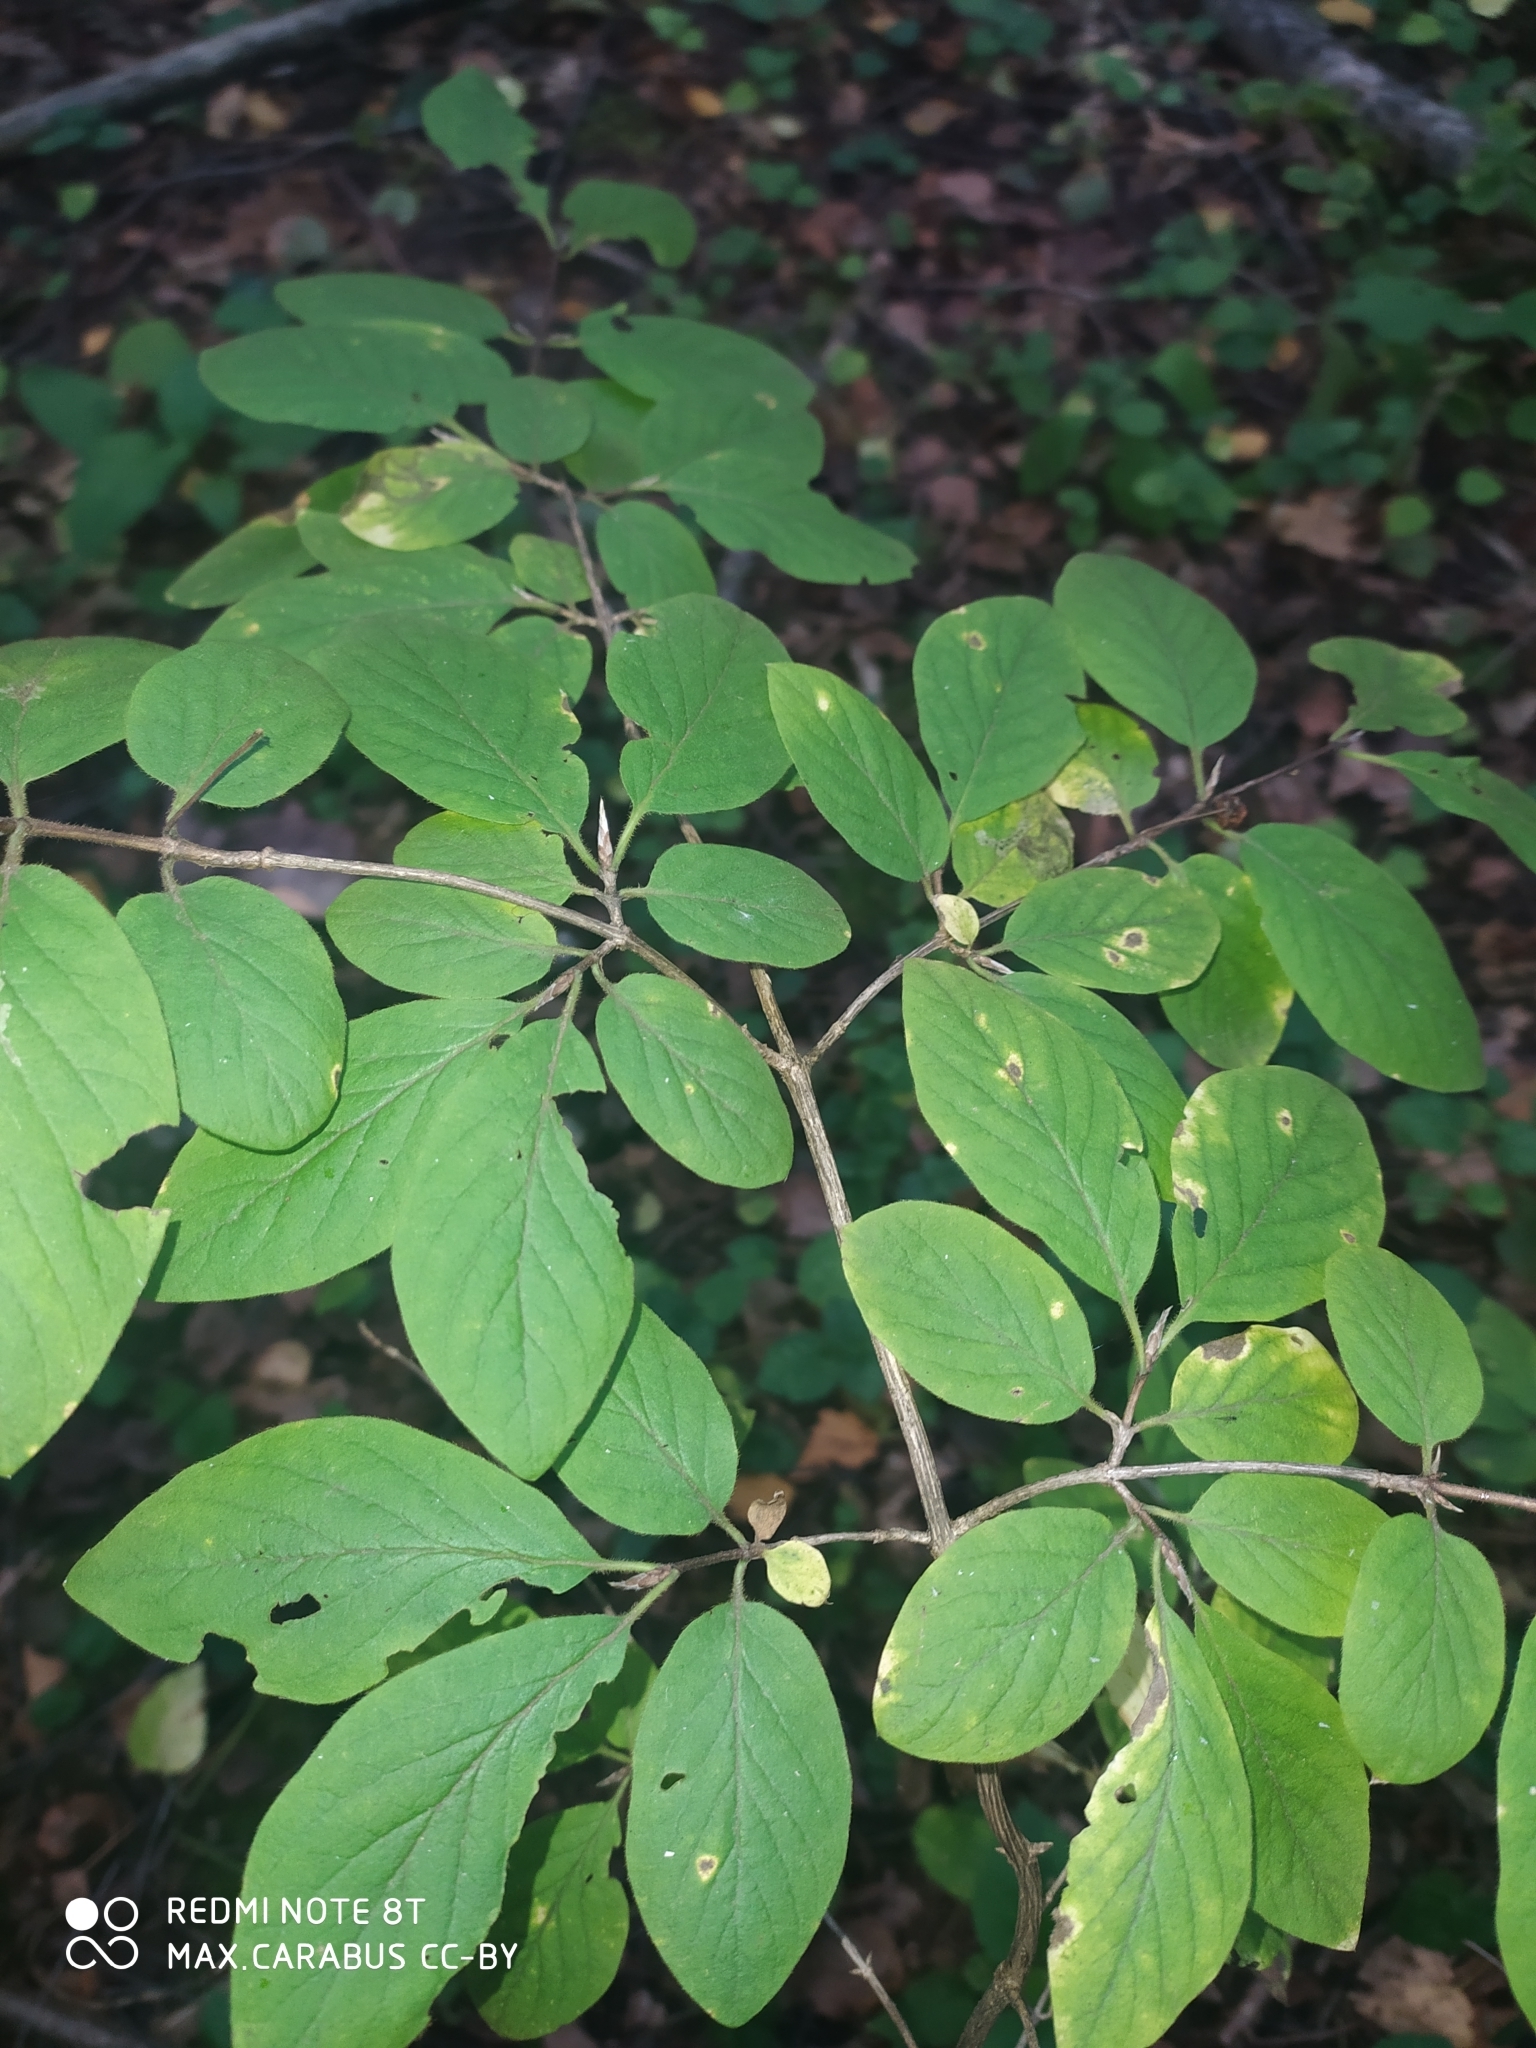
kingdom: Plantae
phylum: Tracheophyta
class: Magnoliopsida
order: Dipsacales
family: Caprifoliaceae
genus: Lonicera
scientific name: Lonicera xylosteum
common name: Fly honeysuckle
